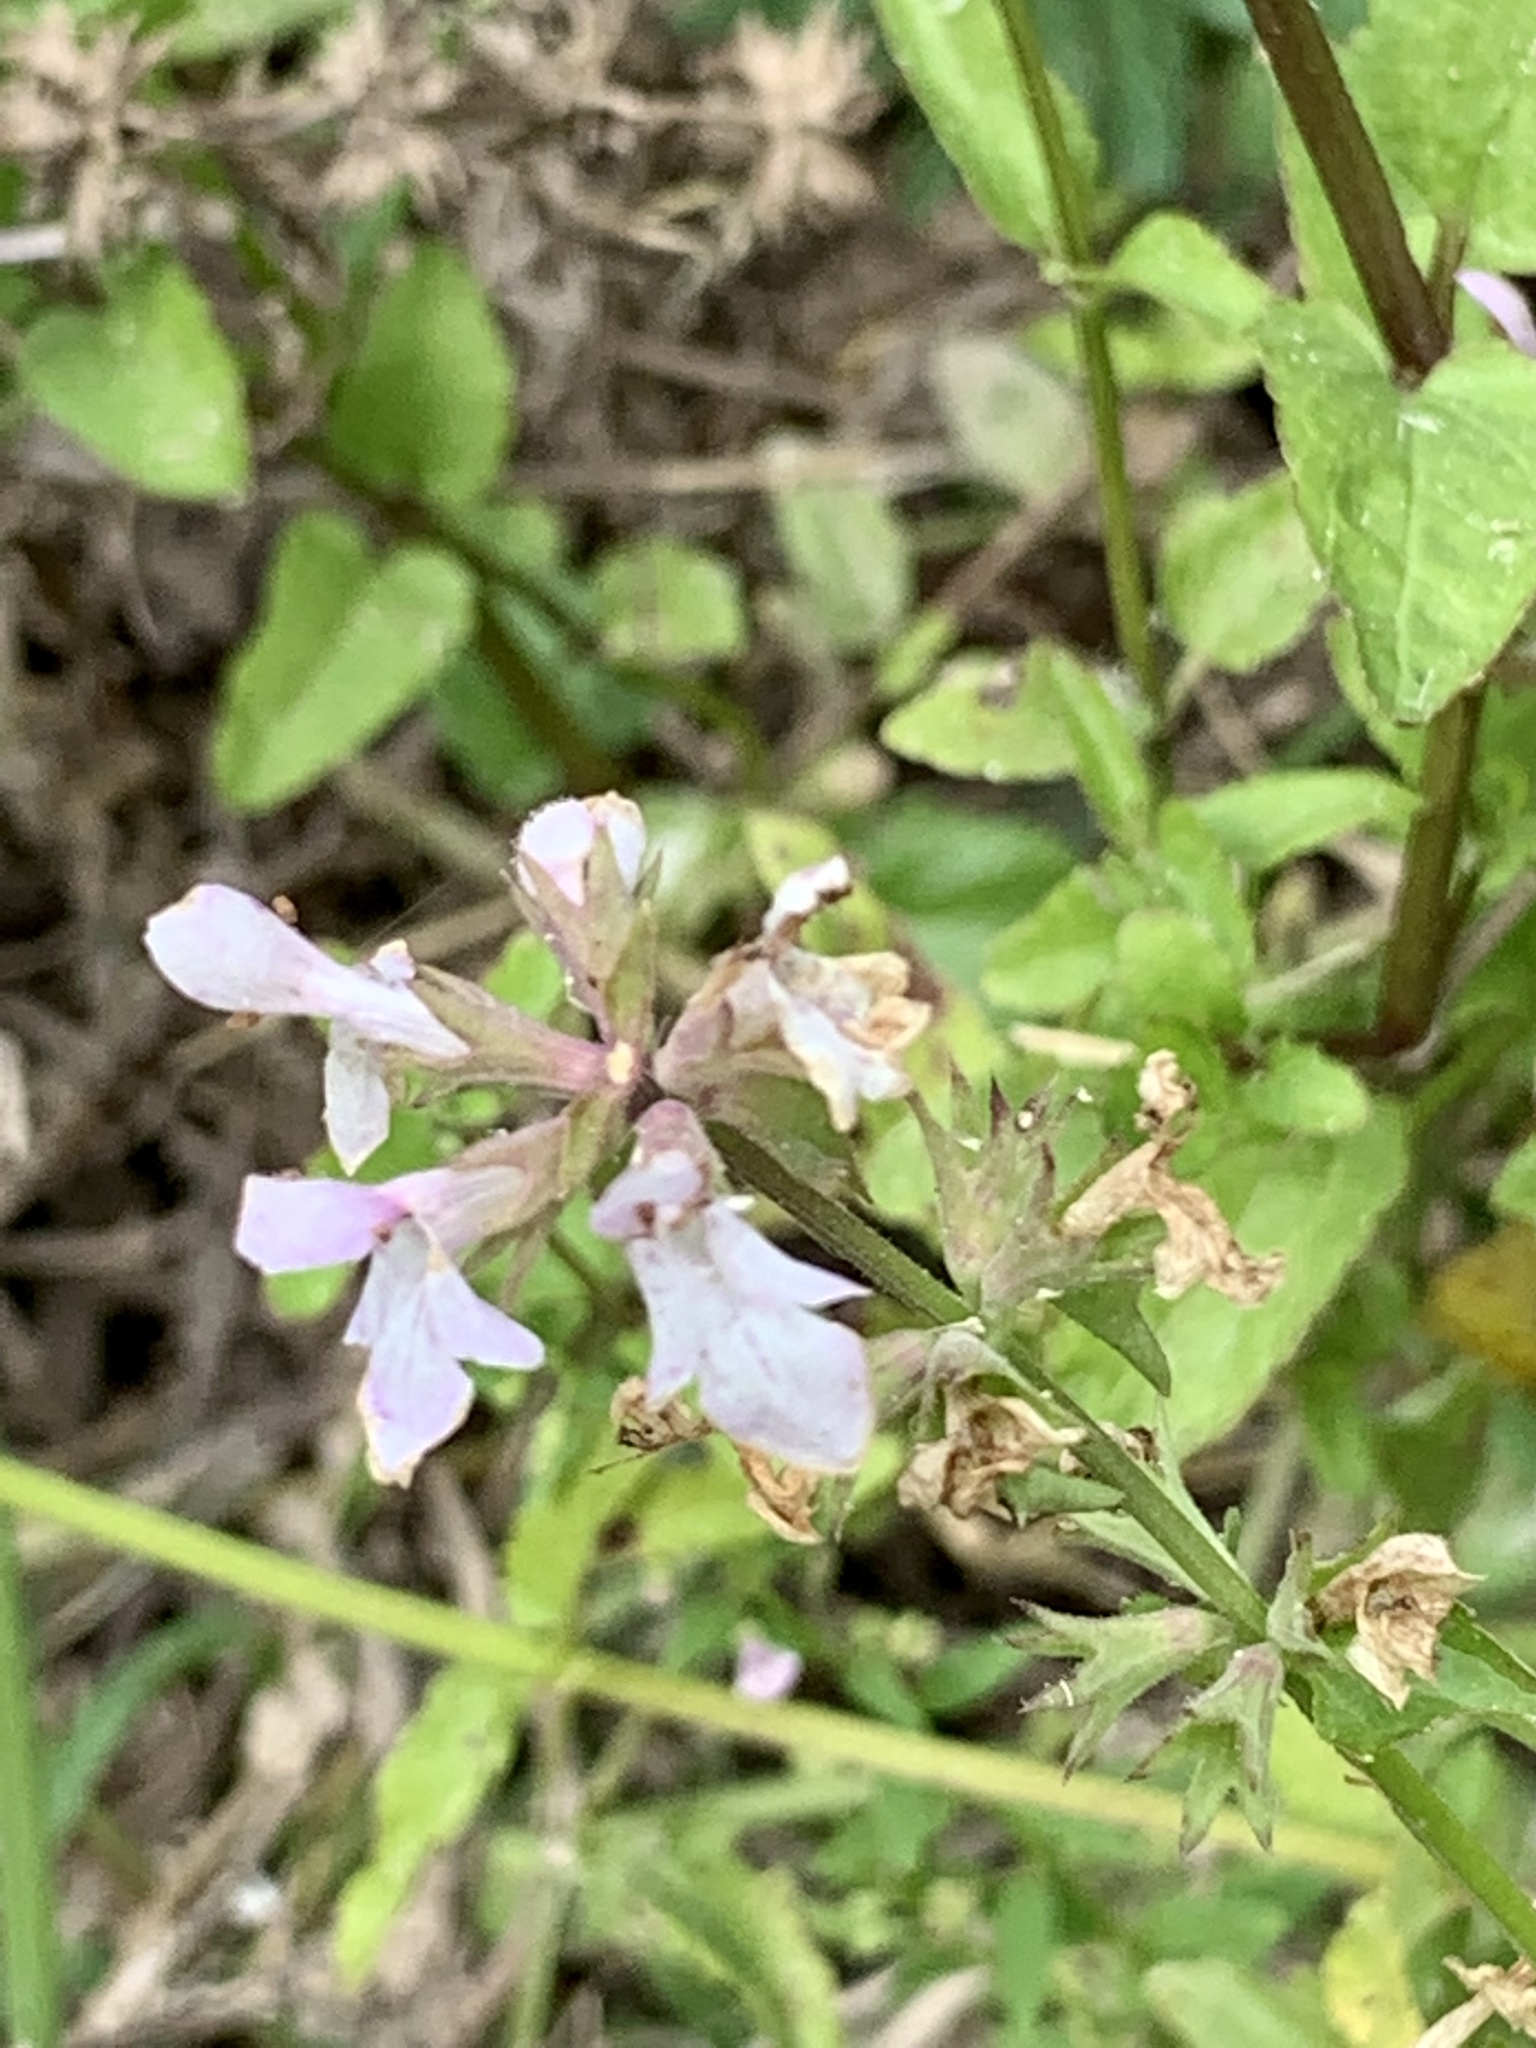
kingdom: Plantae
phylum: Tracheophyta
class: Magnoliopsida
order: Lamiales
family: Lamiaceae
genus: Stachys
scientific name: Stachys floridana
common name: Florida betony
